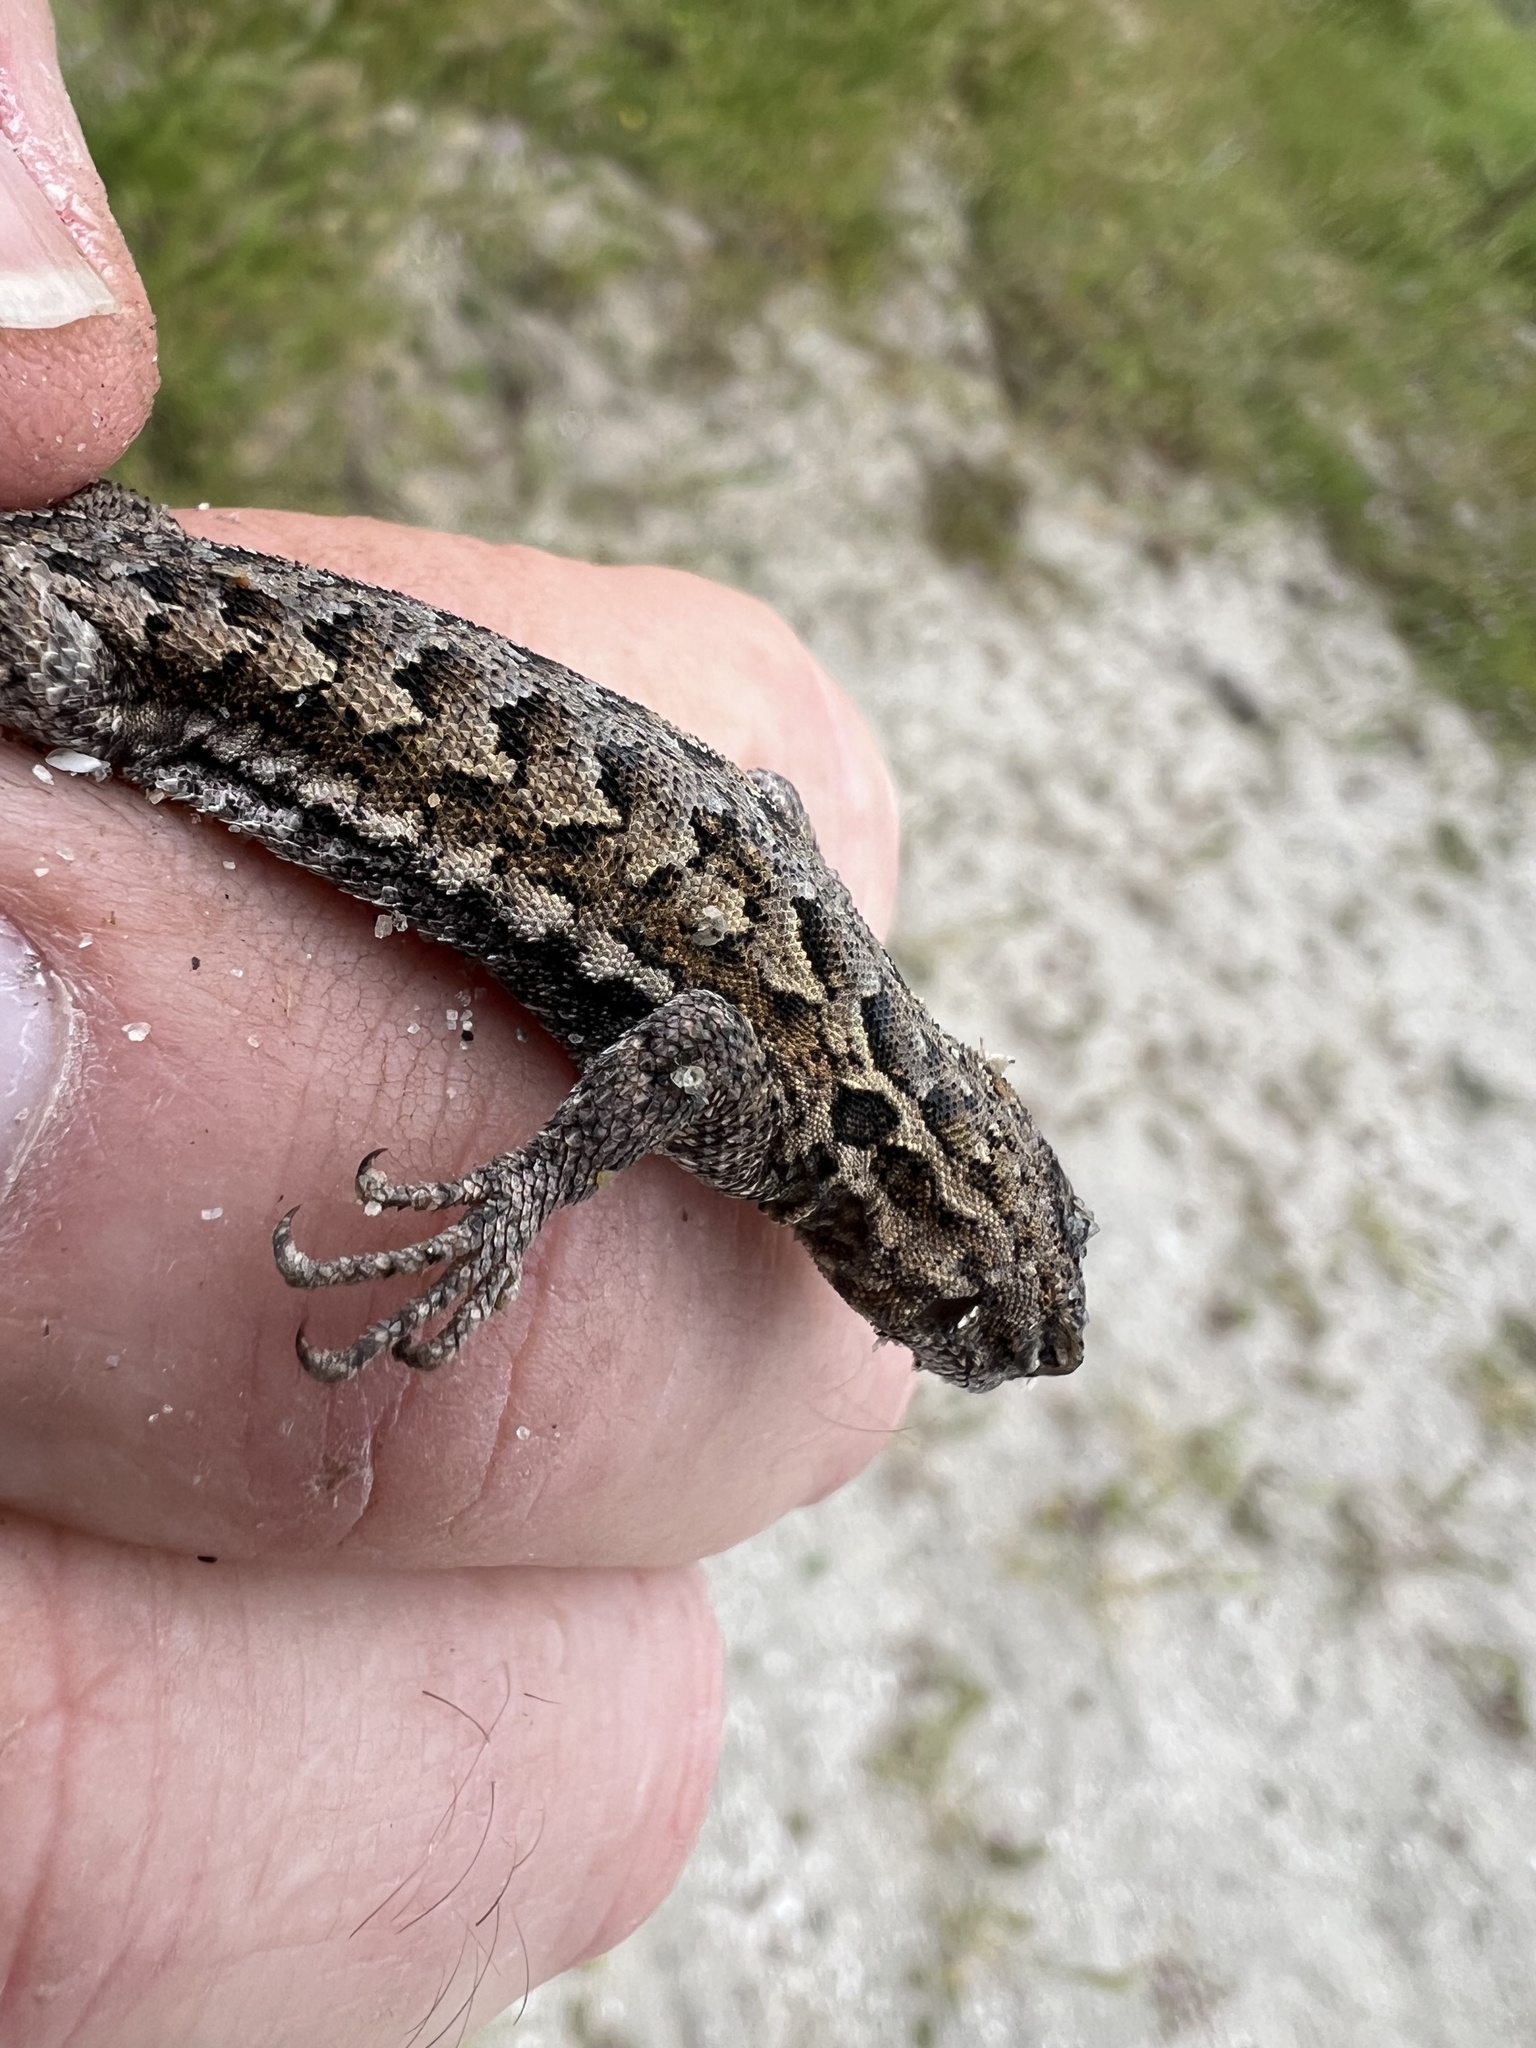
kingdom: Animalia
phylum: Chordata
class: Squamata
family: Phrynosomatidae
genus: Uta
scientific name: Uta stansburiana
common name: Side-blotched lizard
